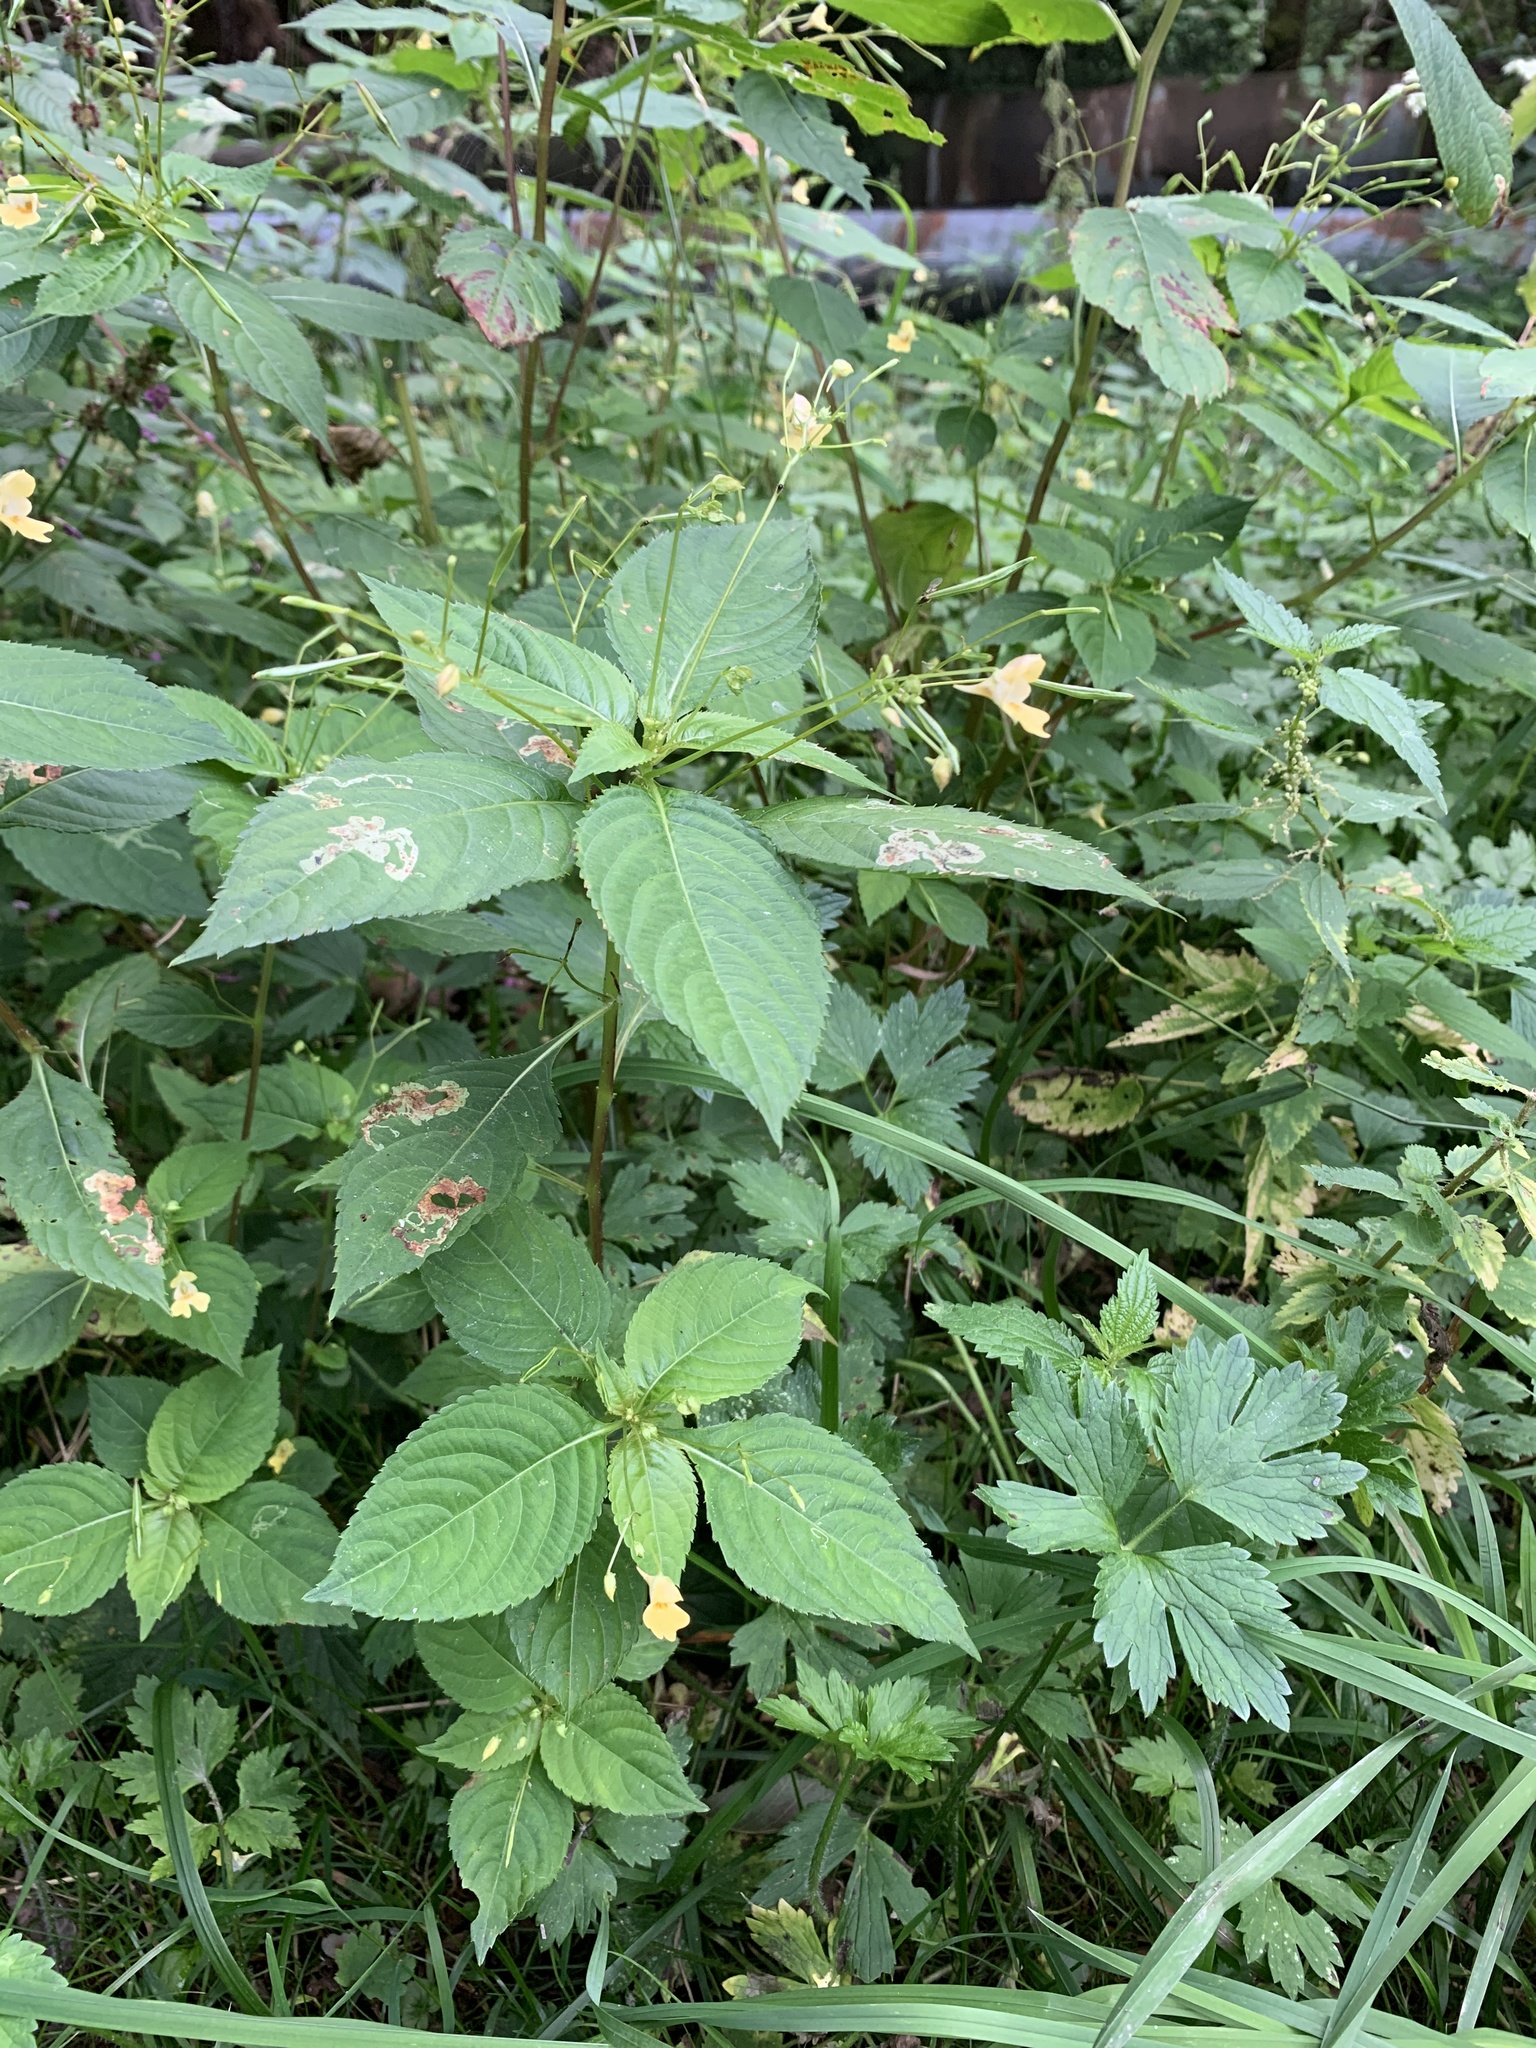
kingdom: Plantae
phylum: Tracheophyta
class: Magnoliopsida
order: Ericales
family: Balsaminaceae
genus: Impatiens
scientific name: Impatiens parviflora
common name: Small balsam
